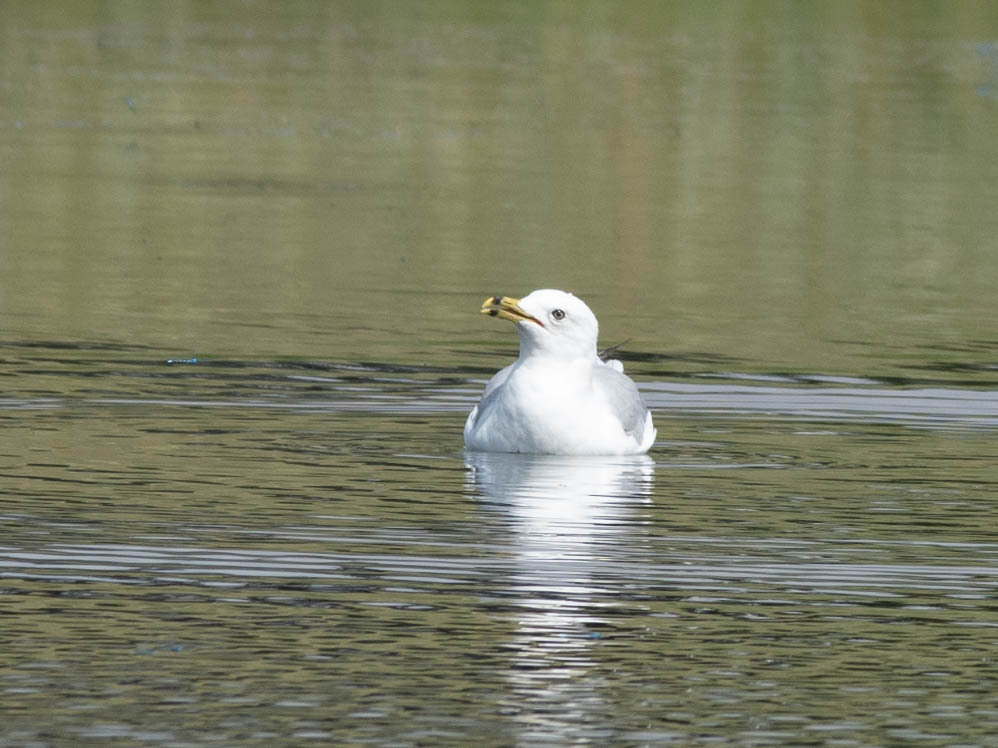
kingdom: Animalia
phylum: Chordata
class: Aves
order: Charadriiformes
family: Laridae
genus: Larus
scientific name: Larus delawarensis
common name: Ring-billed gull
